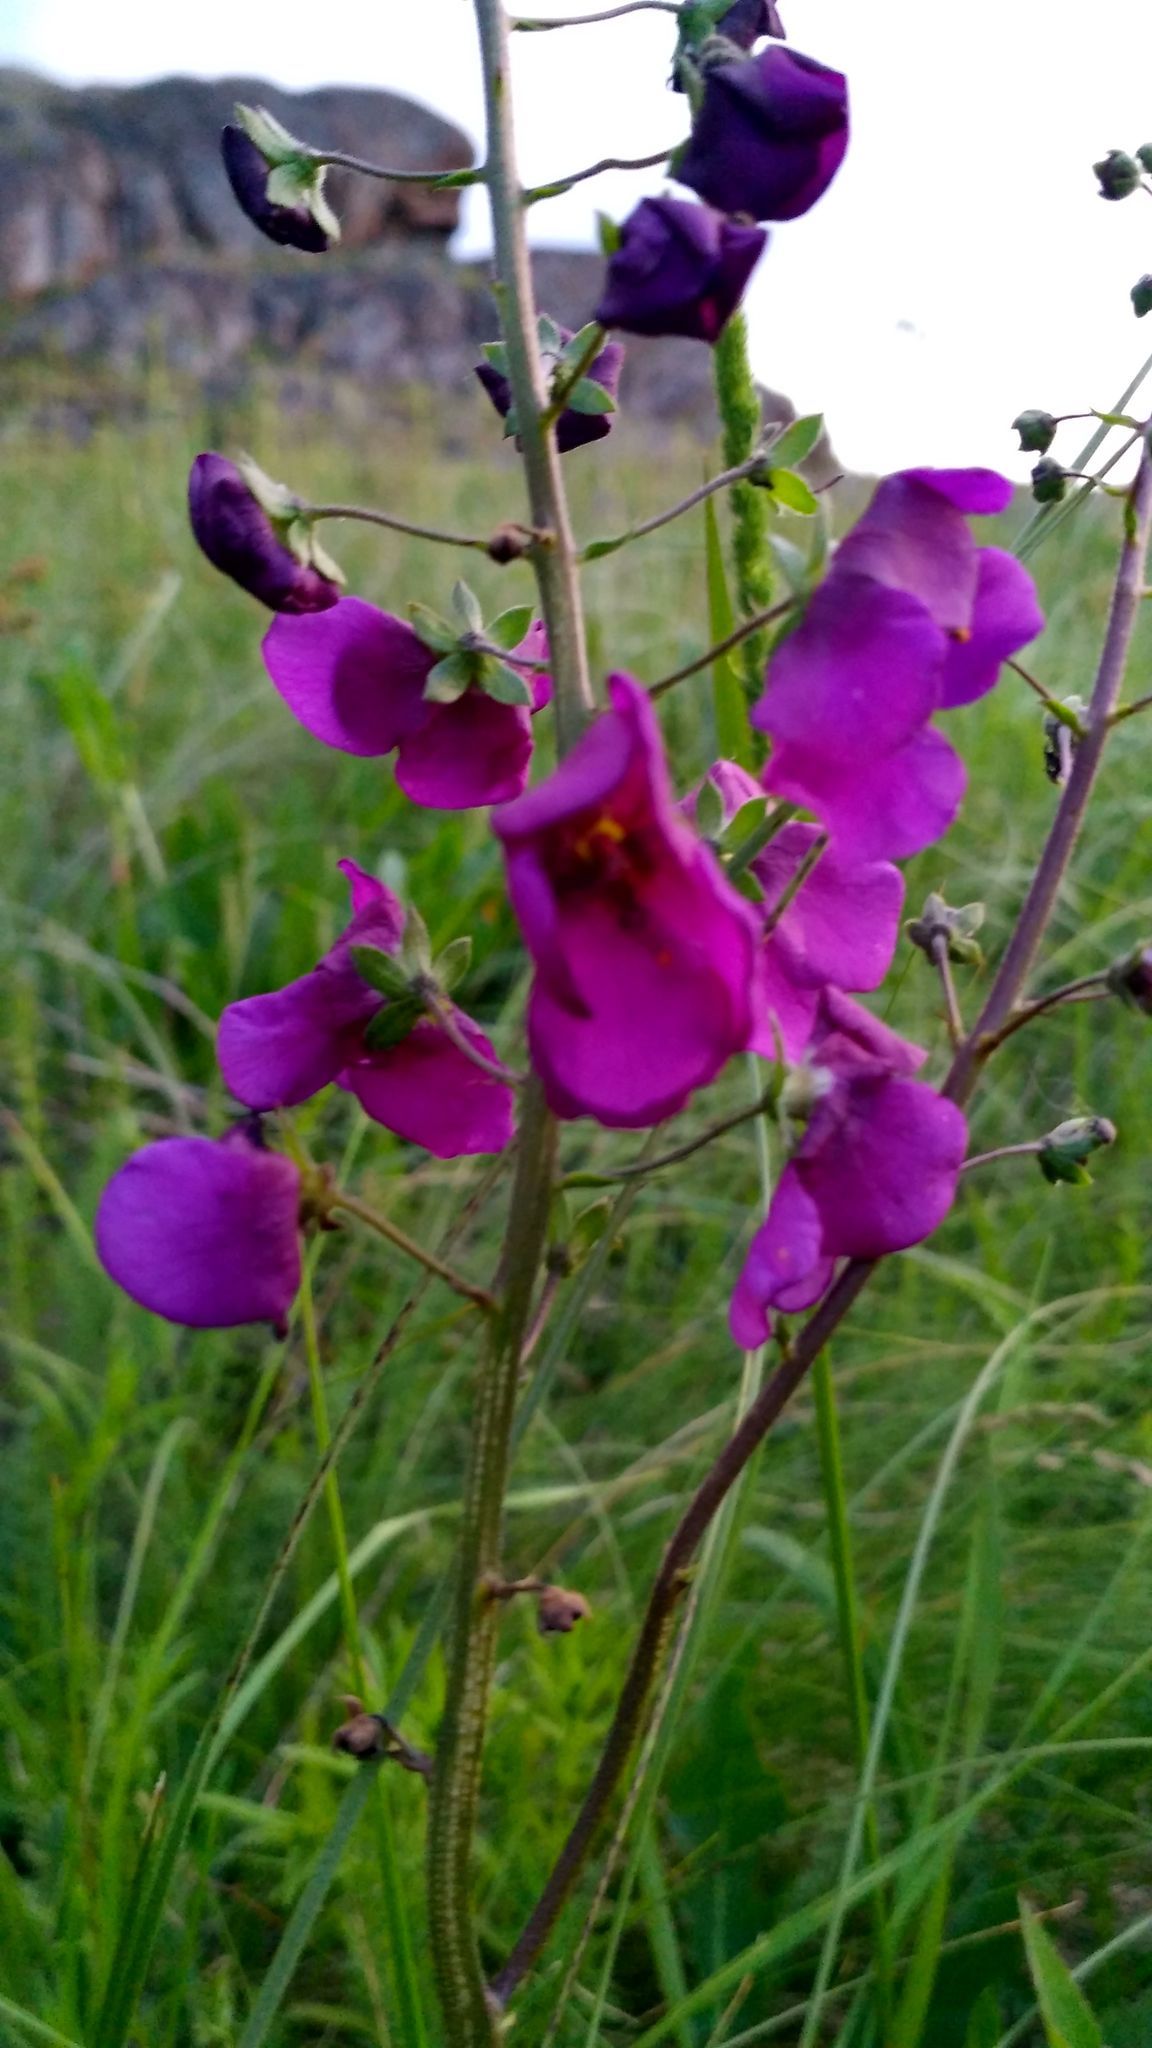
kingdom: Plantae
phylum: Tracheophyta
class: Magnoliopsida
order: Lamiales
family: Scrophulariaceae
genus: Verbascum
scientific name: Verbascum phoeniceum
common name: Purple mullein
